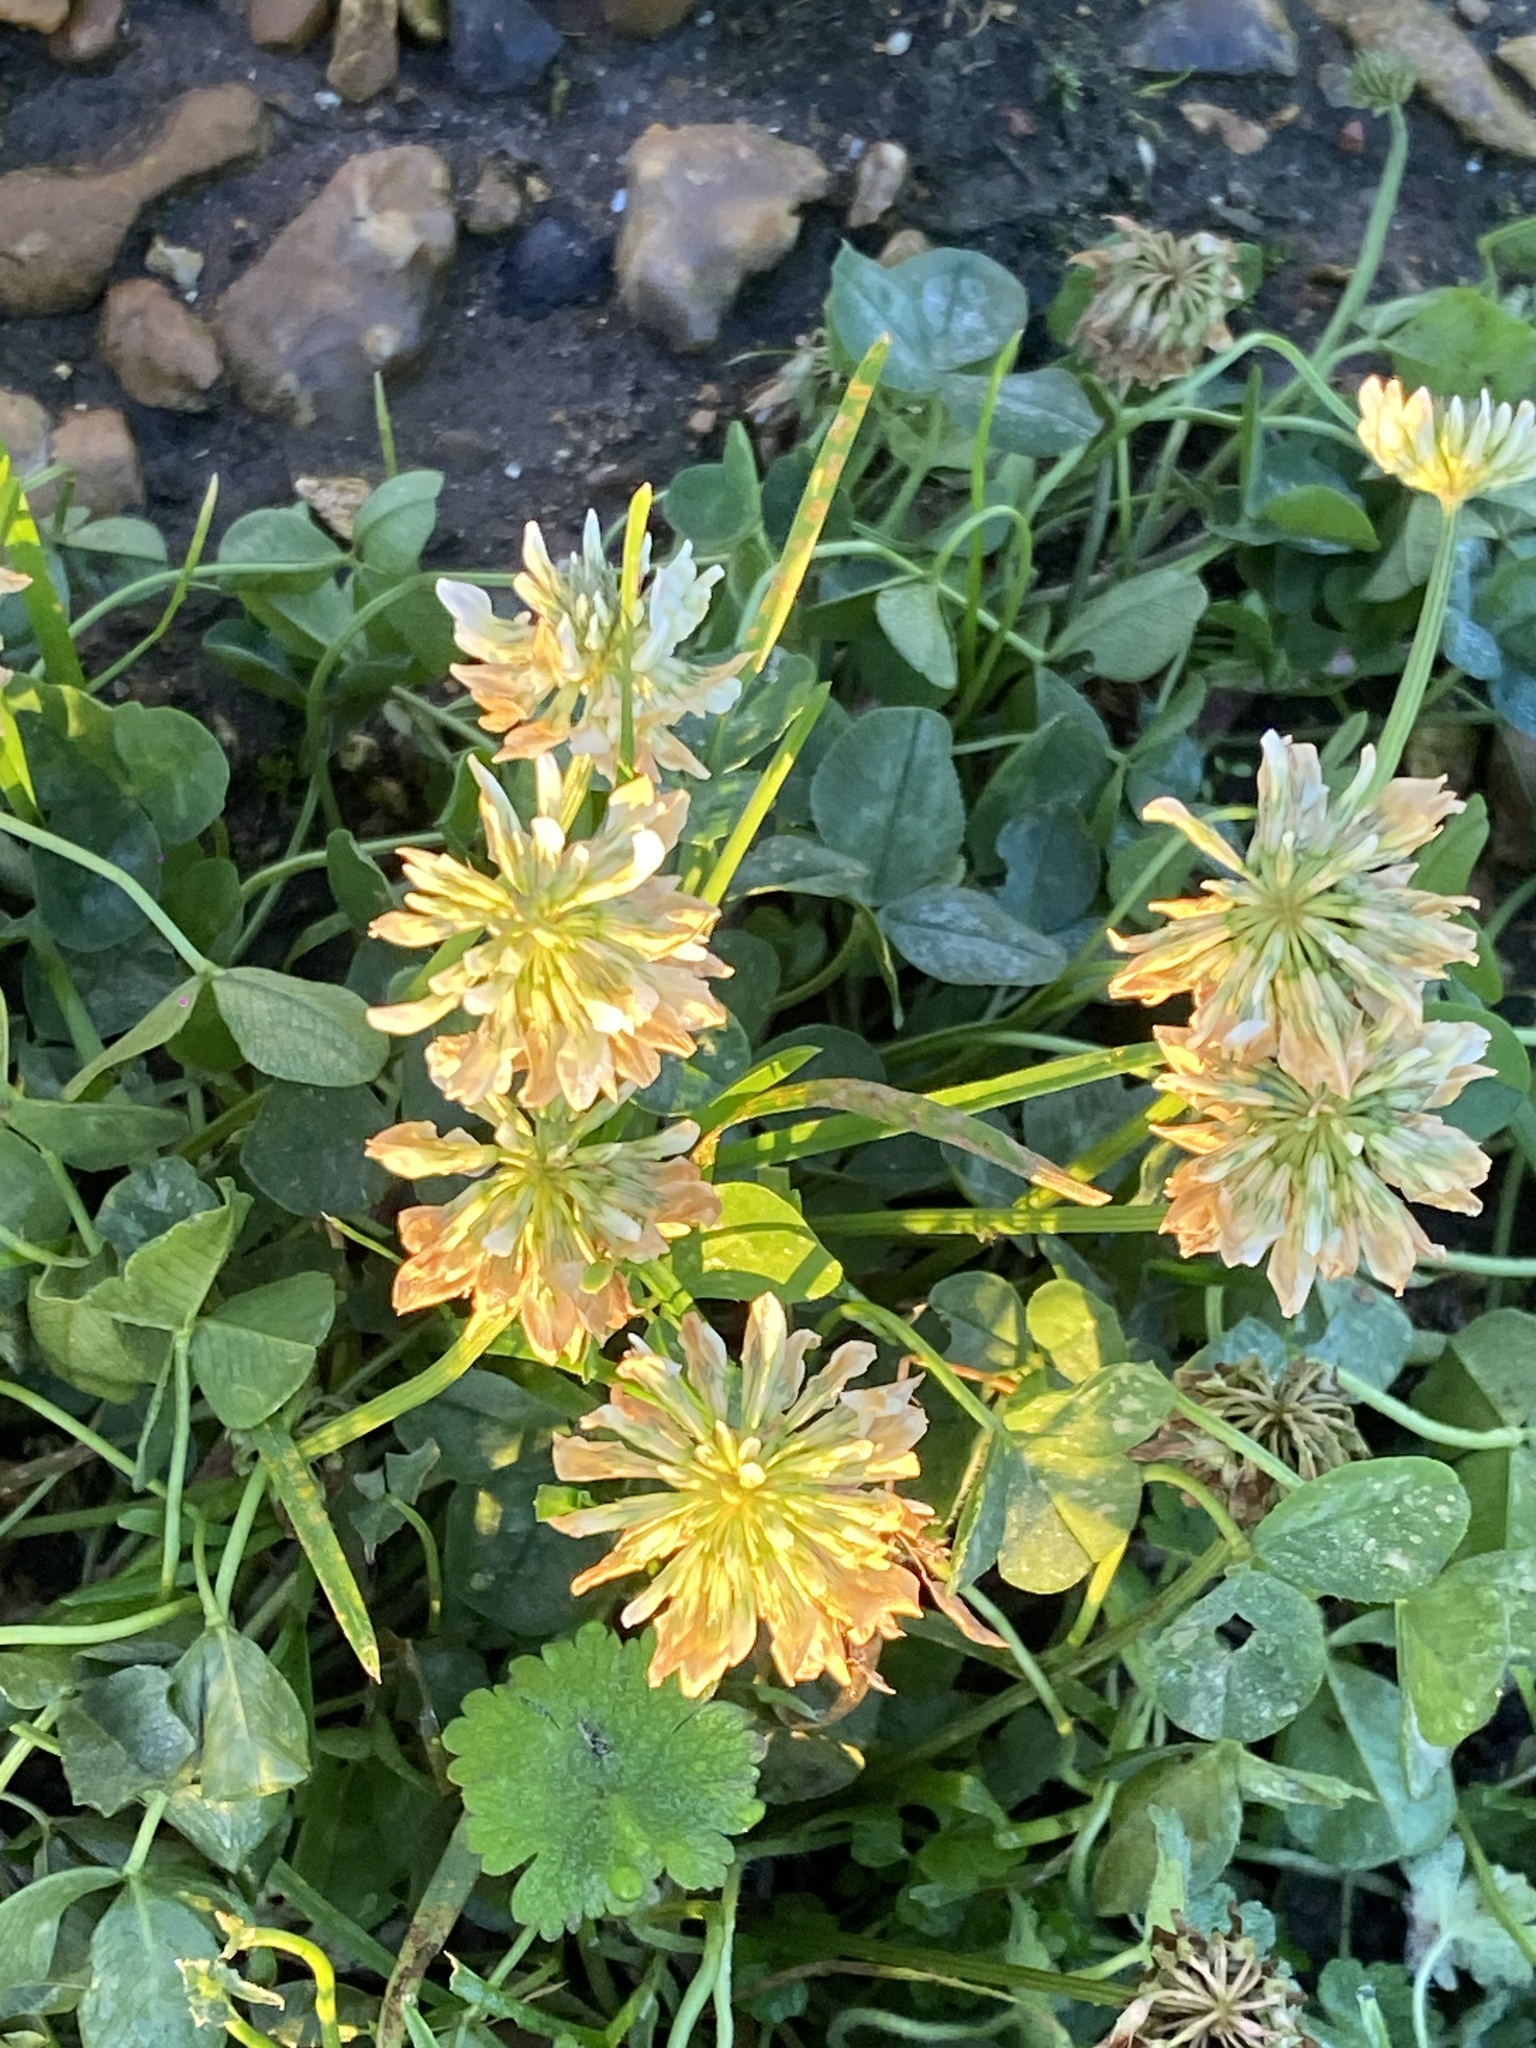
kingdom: Plantae
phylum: Tracheophyta
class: Magnoliopsida
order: Fabales
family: Fabaceae
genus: Trifolium
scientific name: Trifolium repens
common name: White clover
